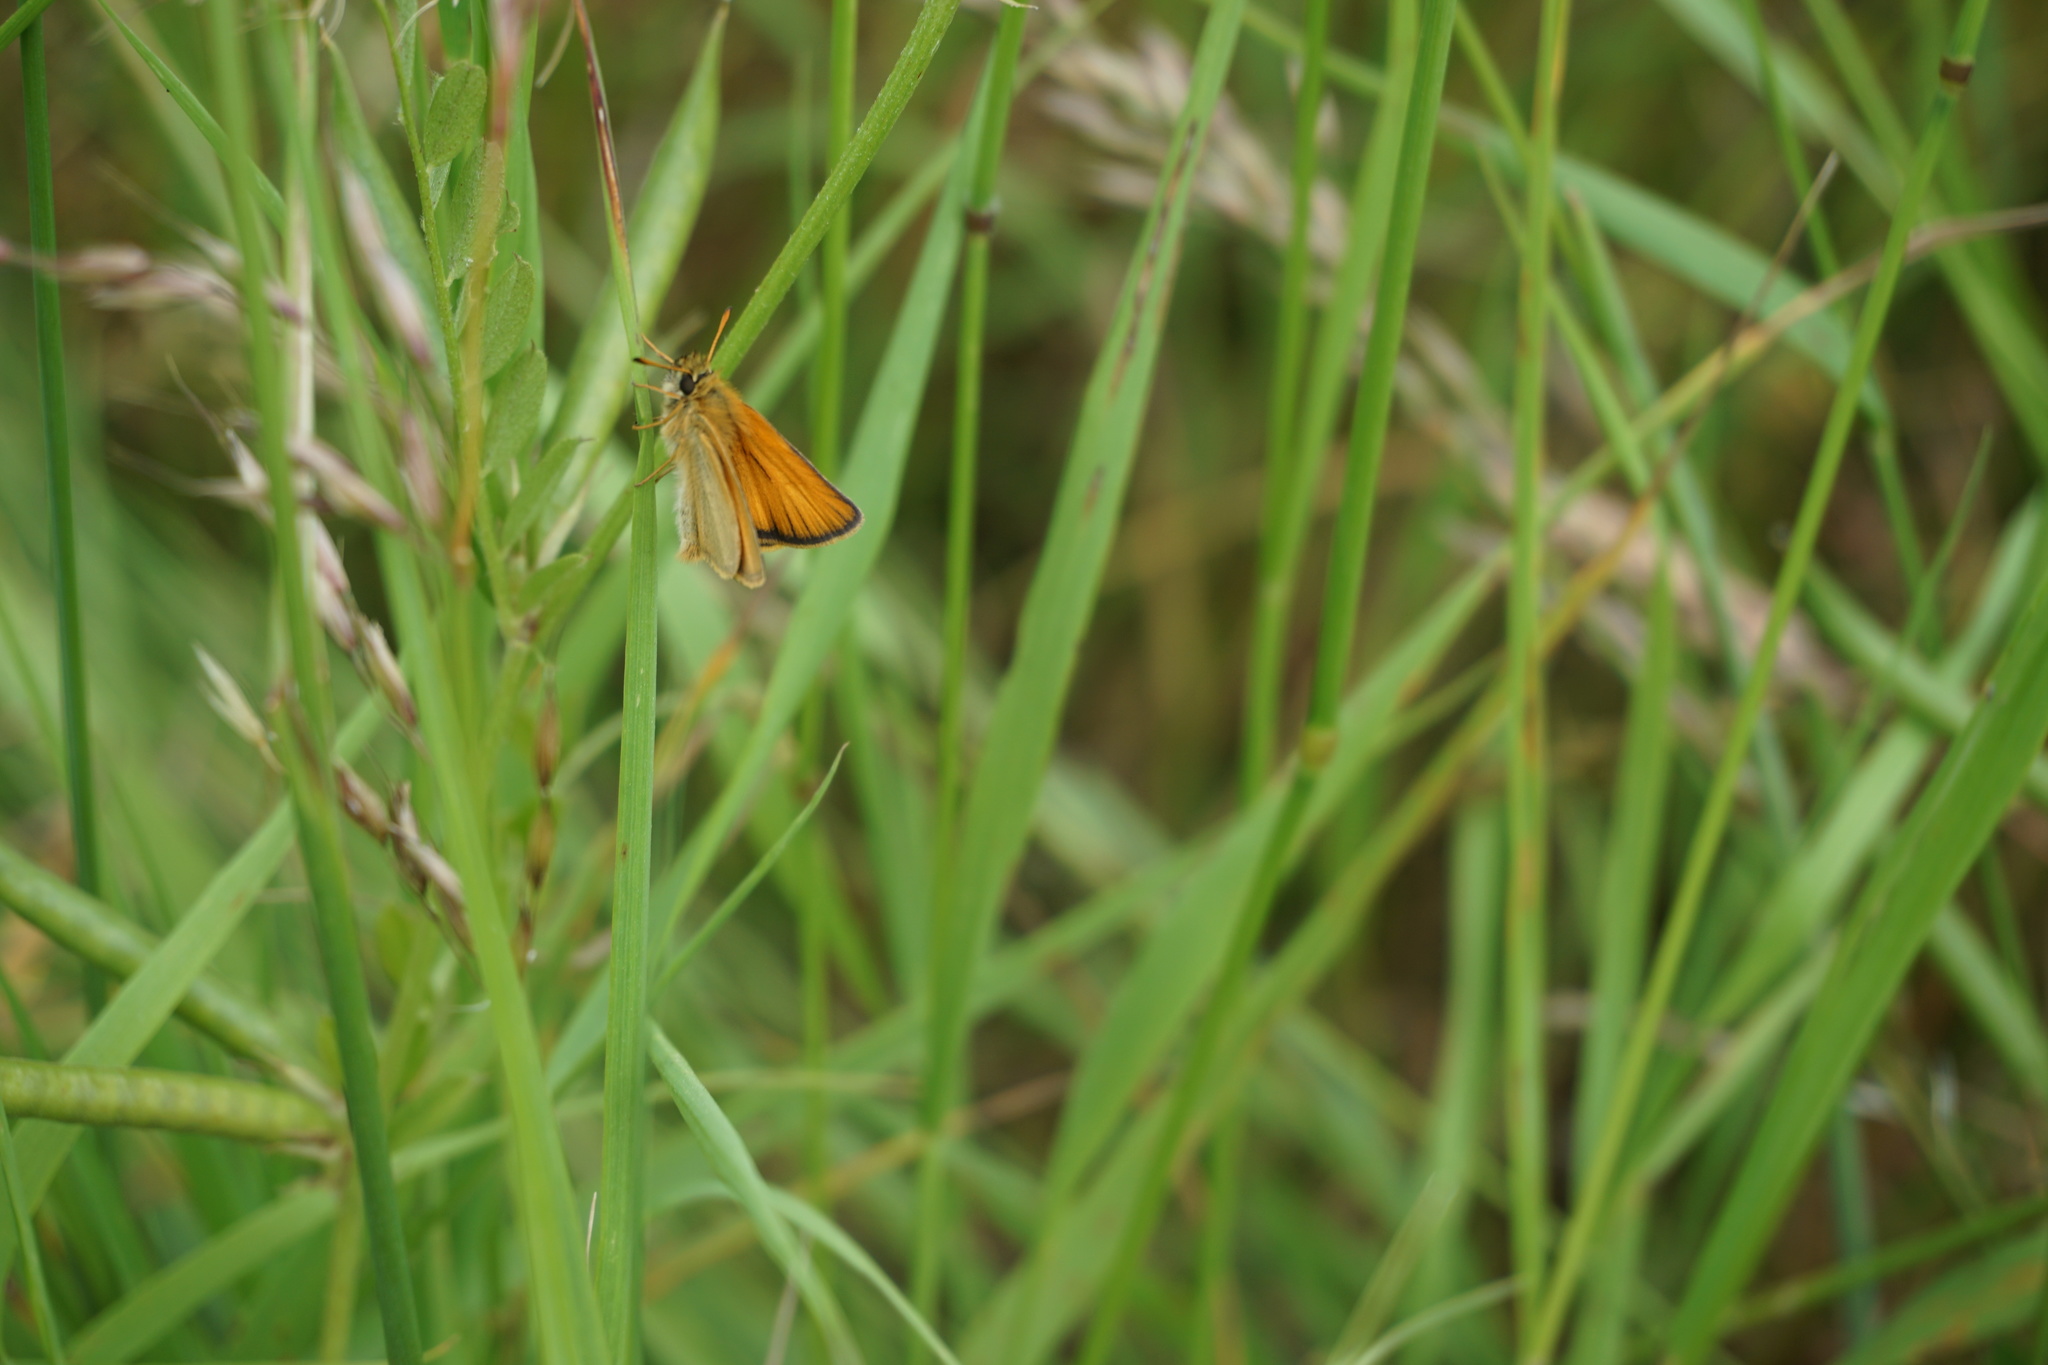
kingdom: Animalia
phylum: Arthropoda
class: Insecta
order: Lepidoptera
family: Hesperiidae
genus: Thymelicus
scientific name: Thymelicus lineola
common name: Essex skipper
